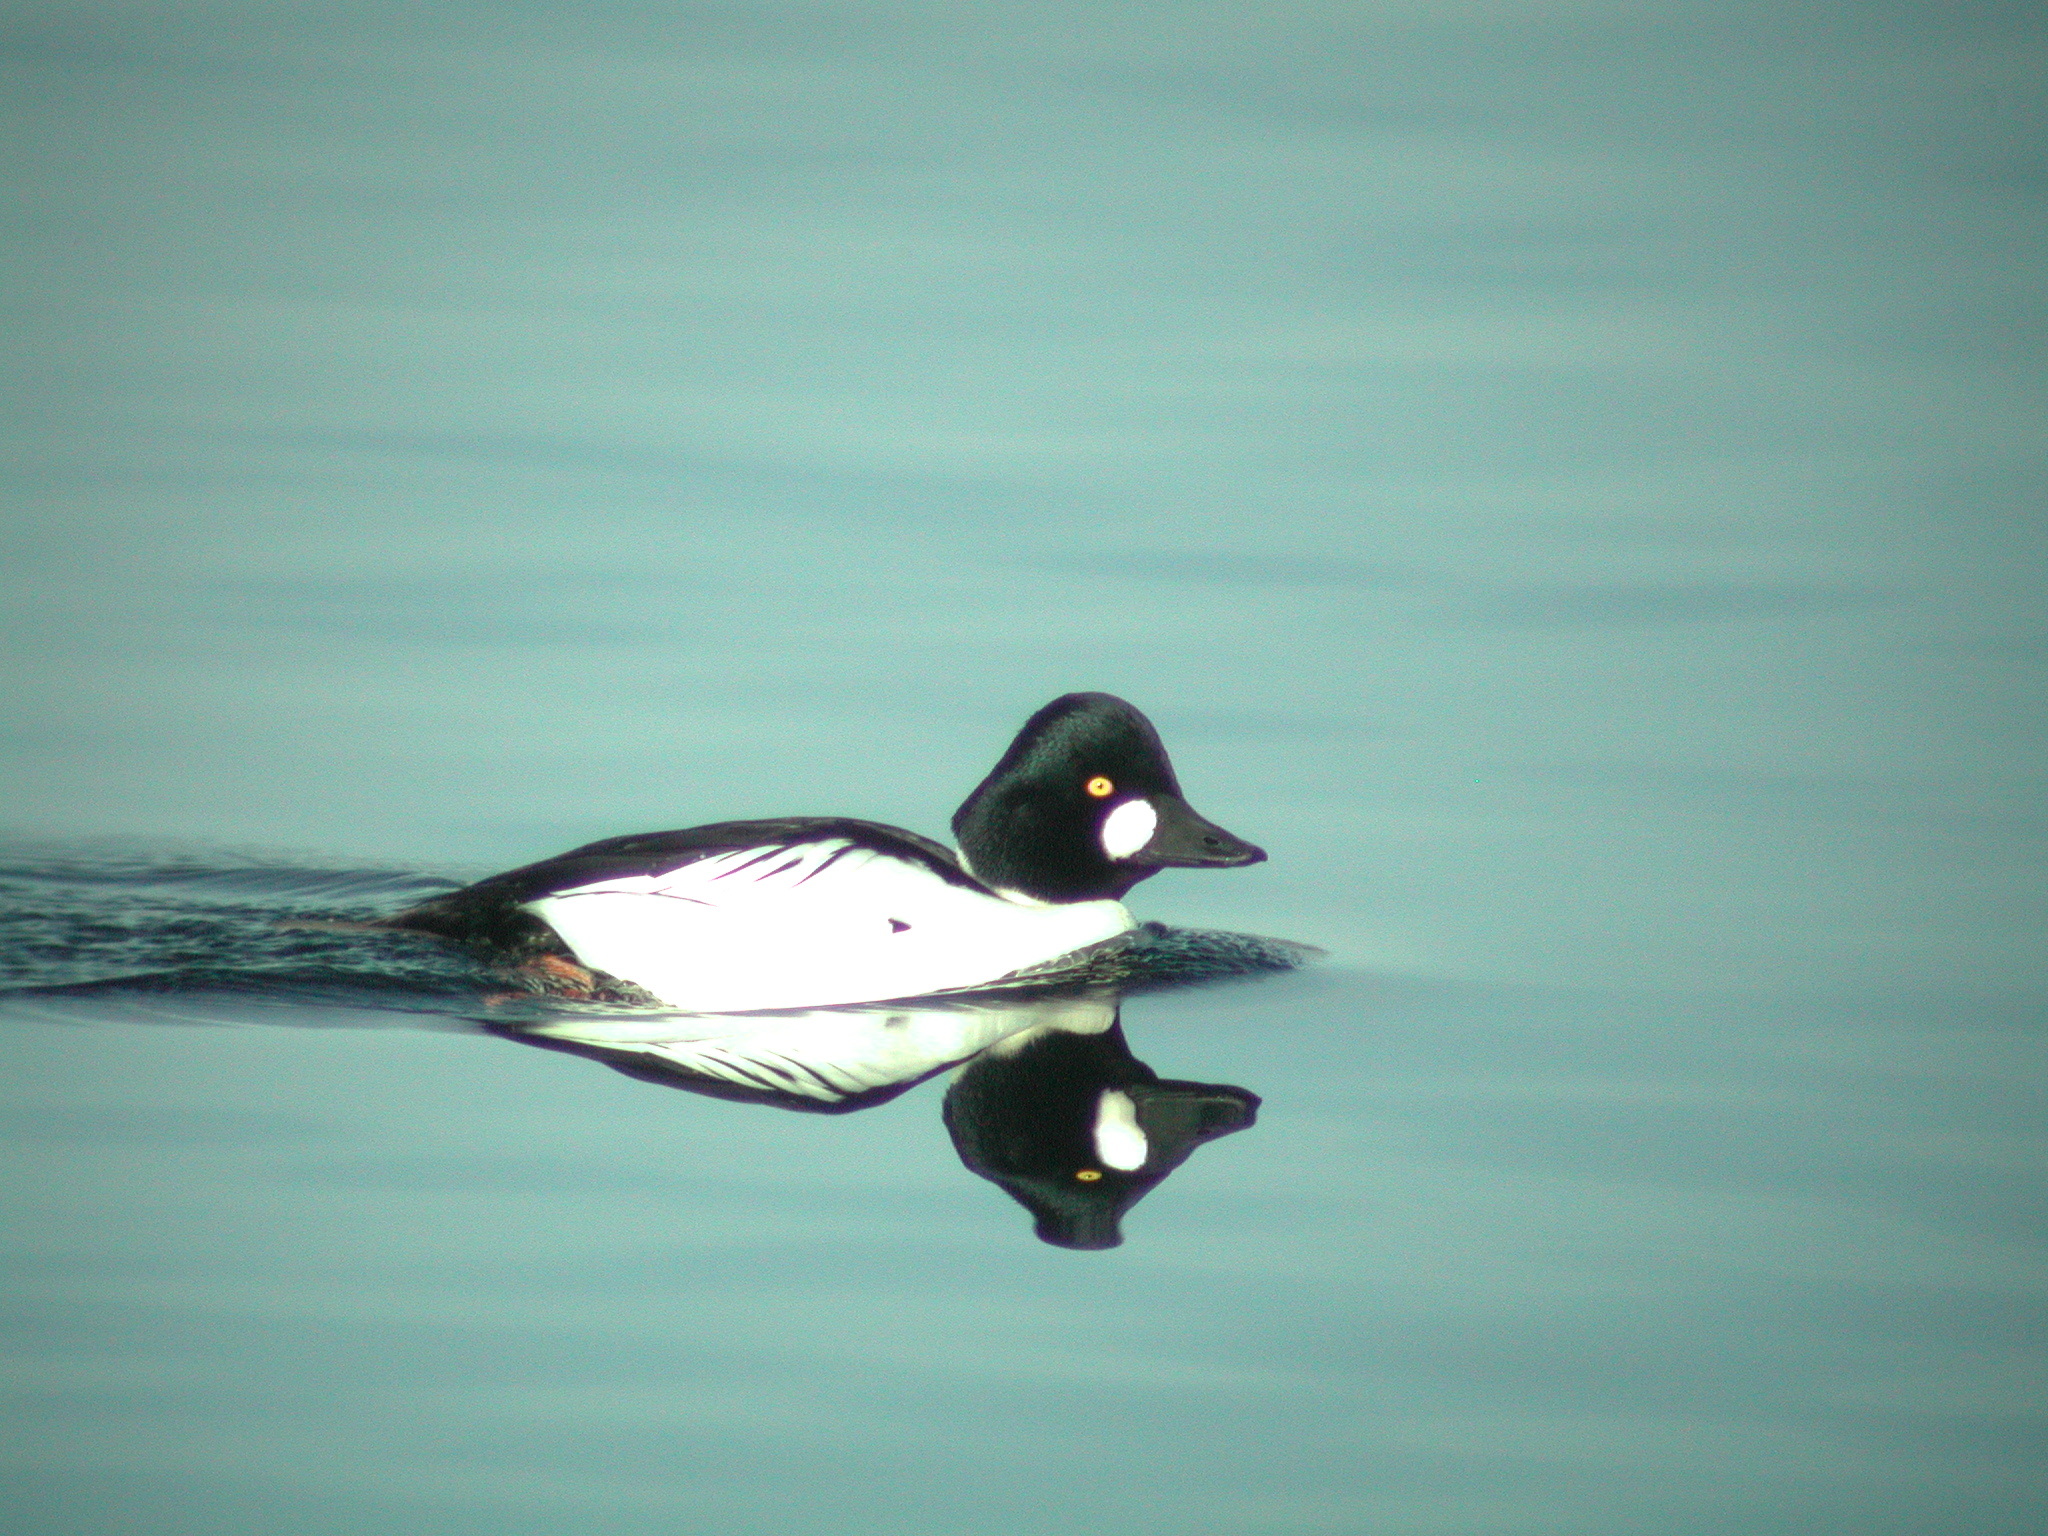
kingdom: Animalia
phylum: Chordata
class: Aves
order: Anseriformes
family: Anatidae
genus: Bucephala
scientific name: Bucephala clangula
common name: Common goldeneye
